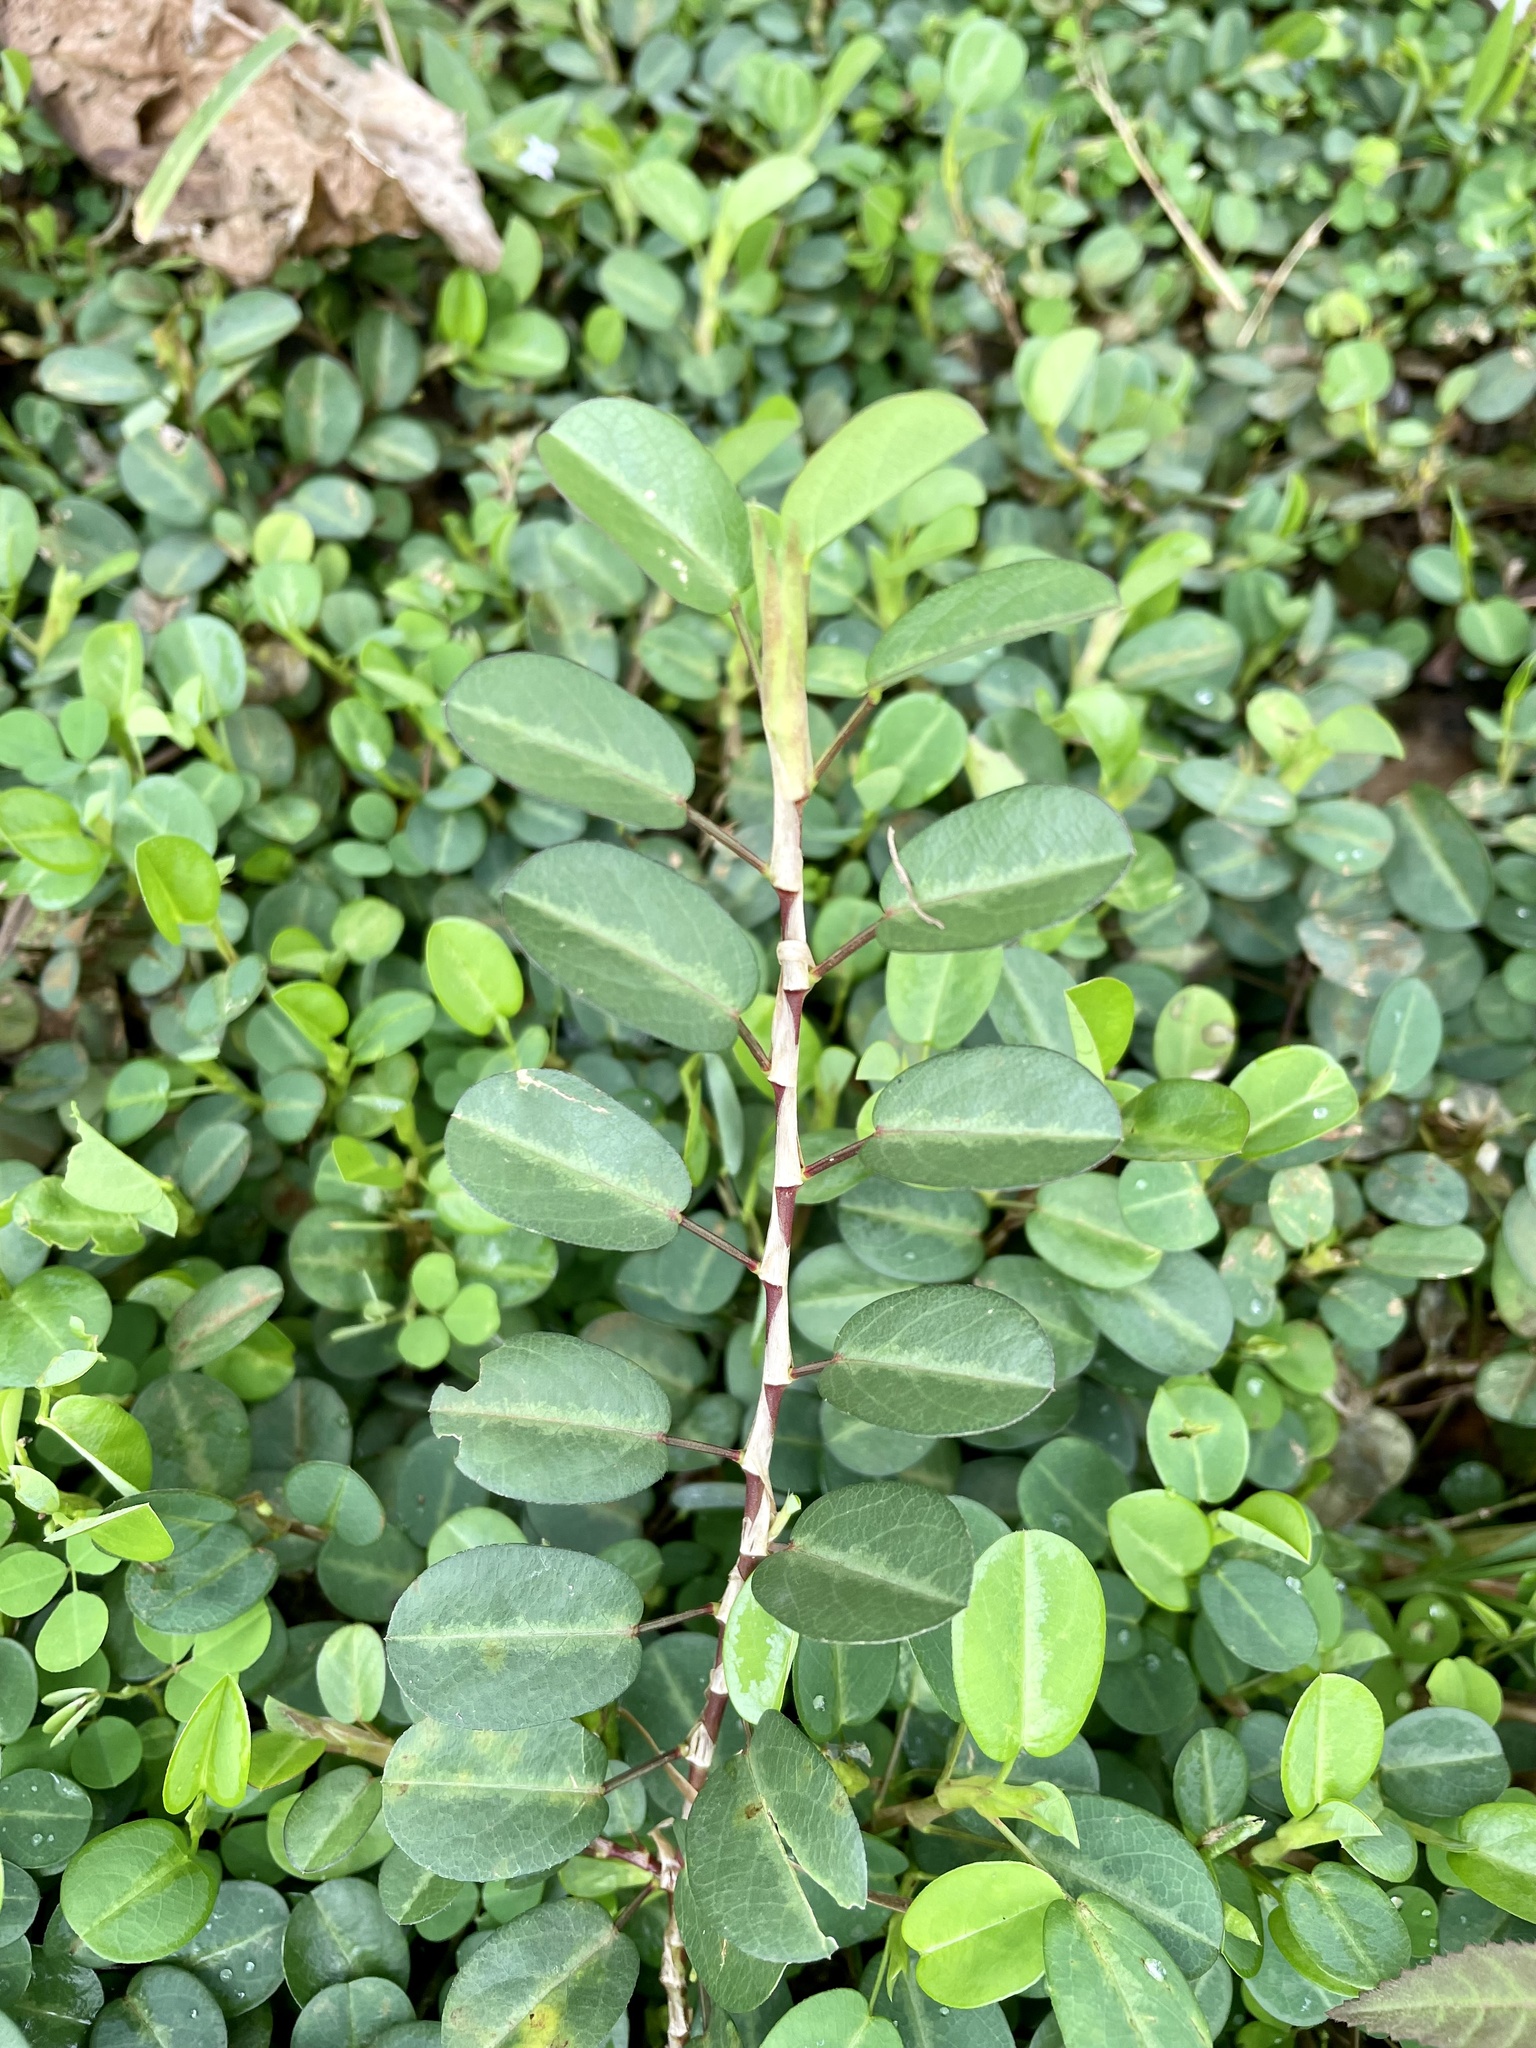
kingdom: Plantae
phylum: Tracheophyta
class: Magnoliopsida
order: Fabales
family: Fabaceae
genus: Alysicarpus
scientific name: Alysicarpus vaginalis
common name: White moneywort
